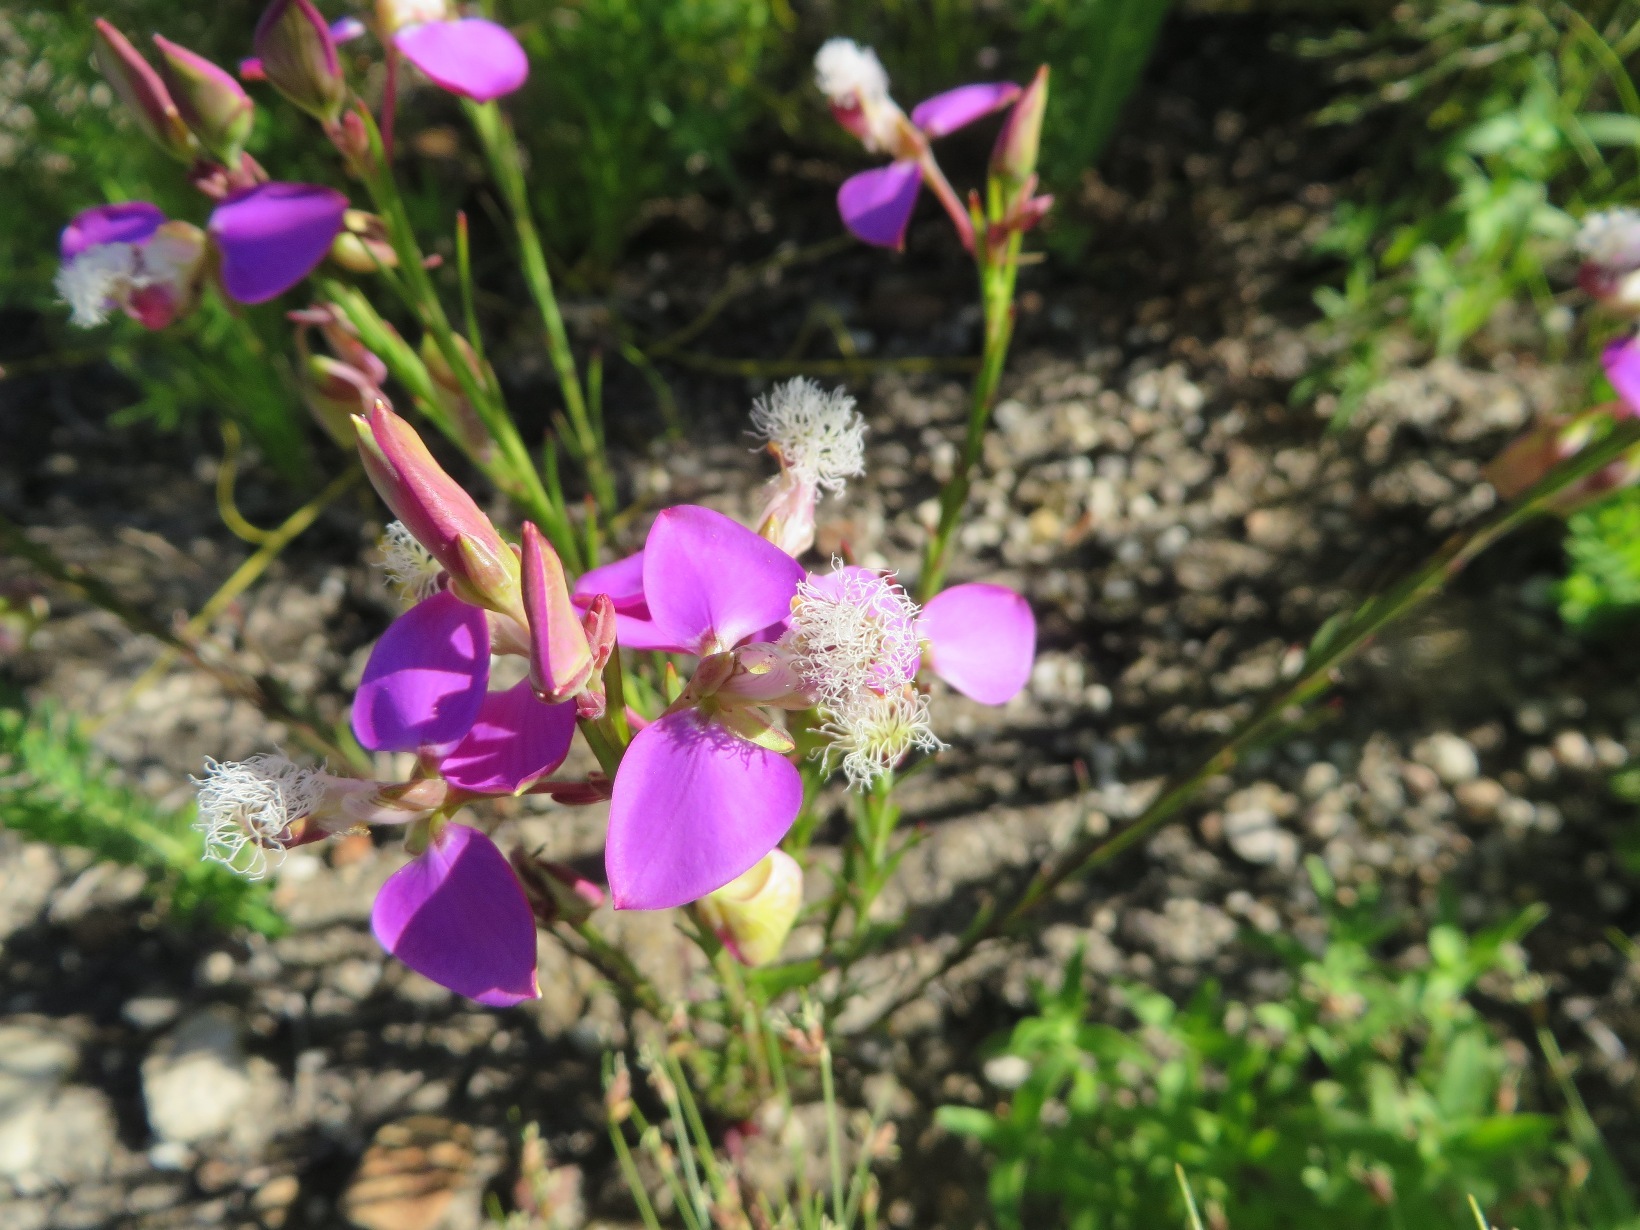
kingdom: Plantae
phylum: Tracheophyta
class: Magnoliopsida
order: Fabales
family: Polygalaceae
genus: Polygala
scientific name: Polygala bracteolata
